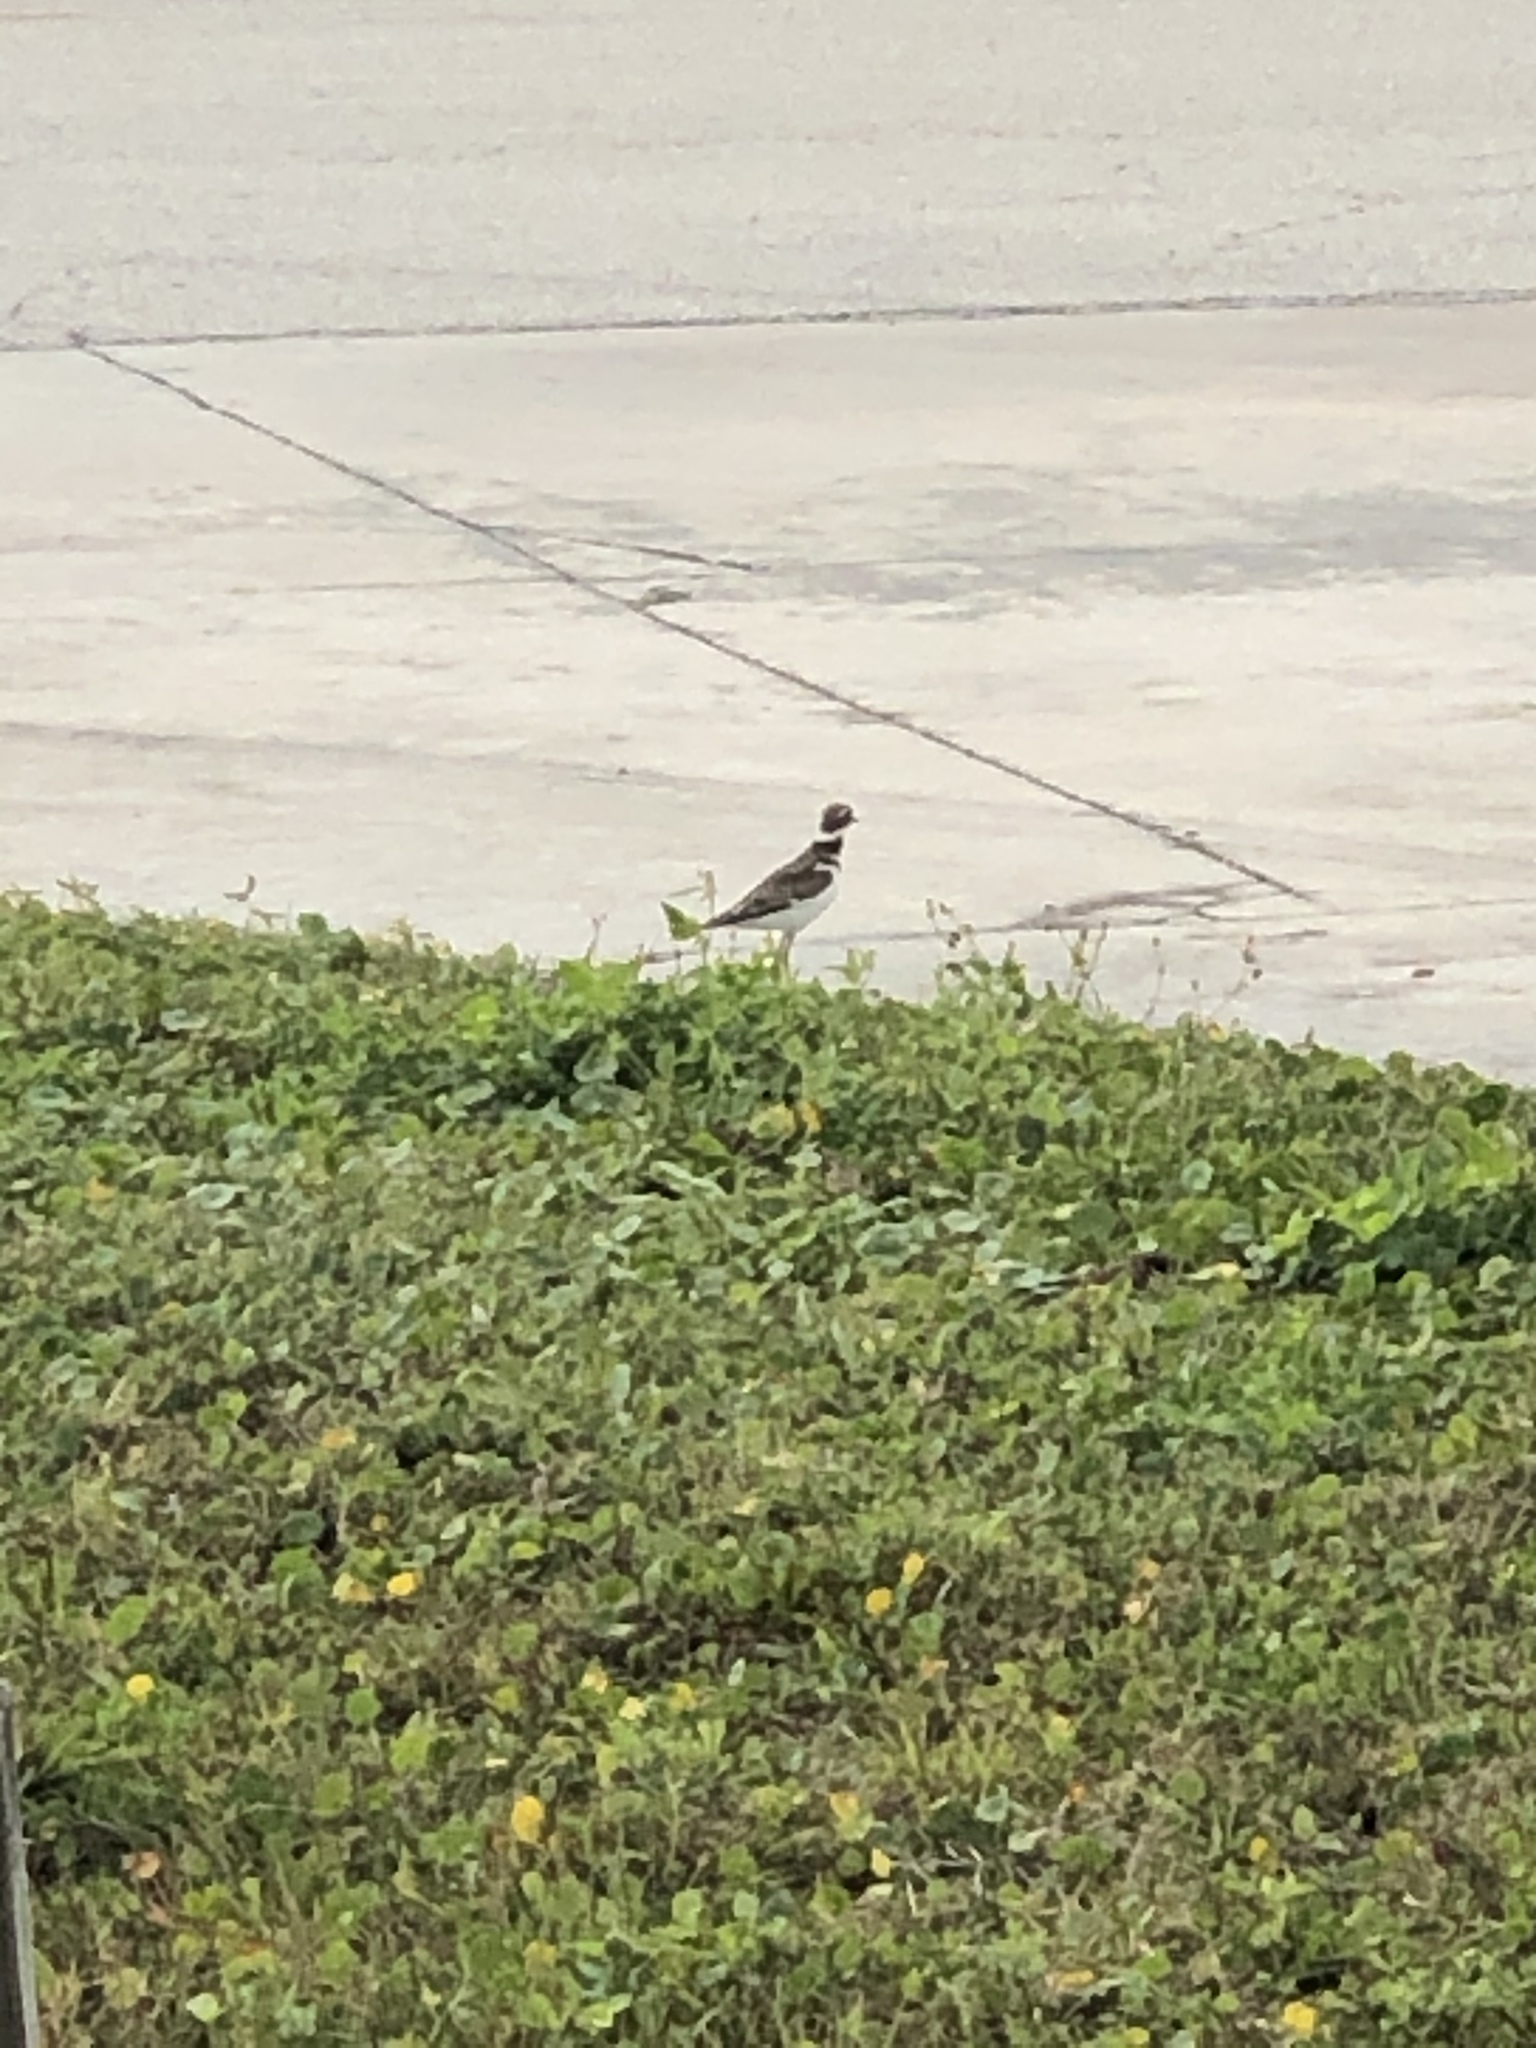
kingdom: Animalia
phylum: Chordata
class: Aves
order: Charadriiformes
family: Charadriidae
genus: Charadrius
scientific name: Charadrius vociferus
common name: Killdeer
